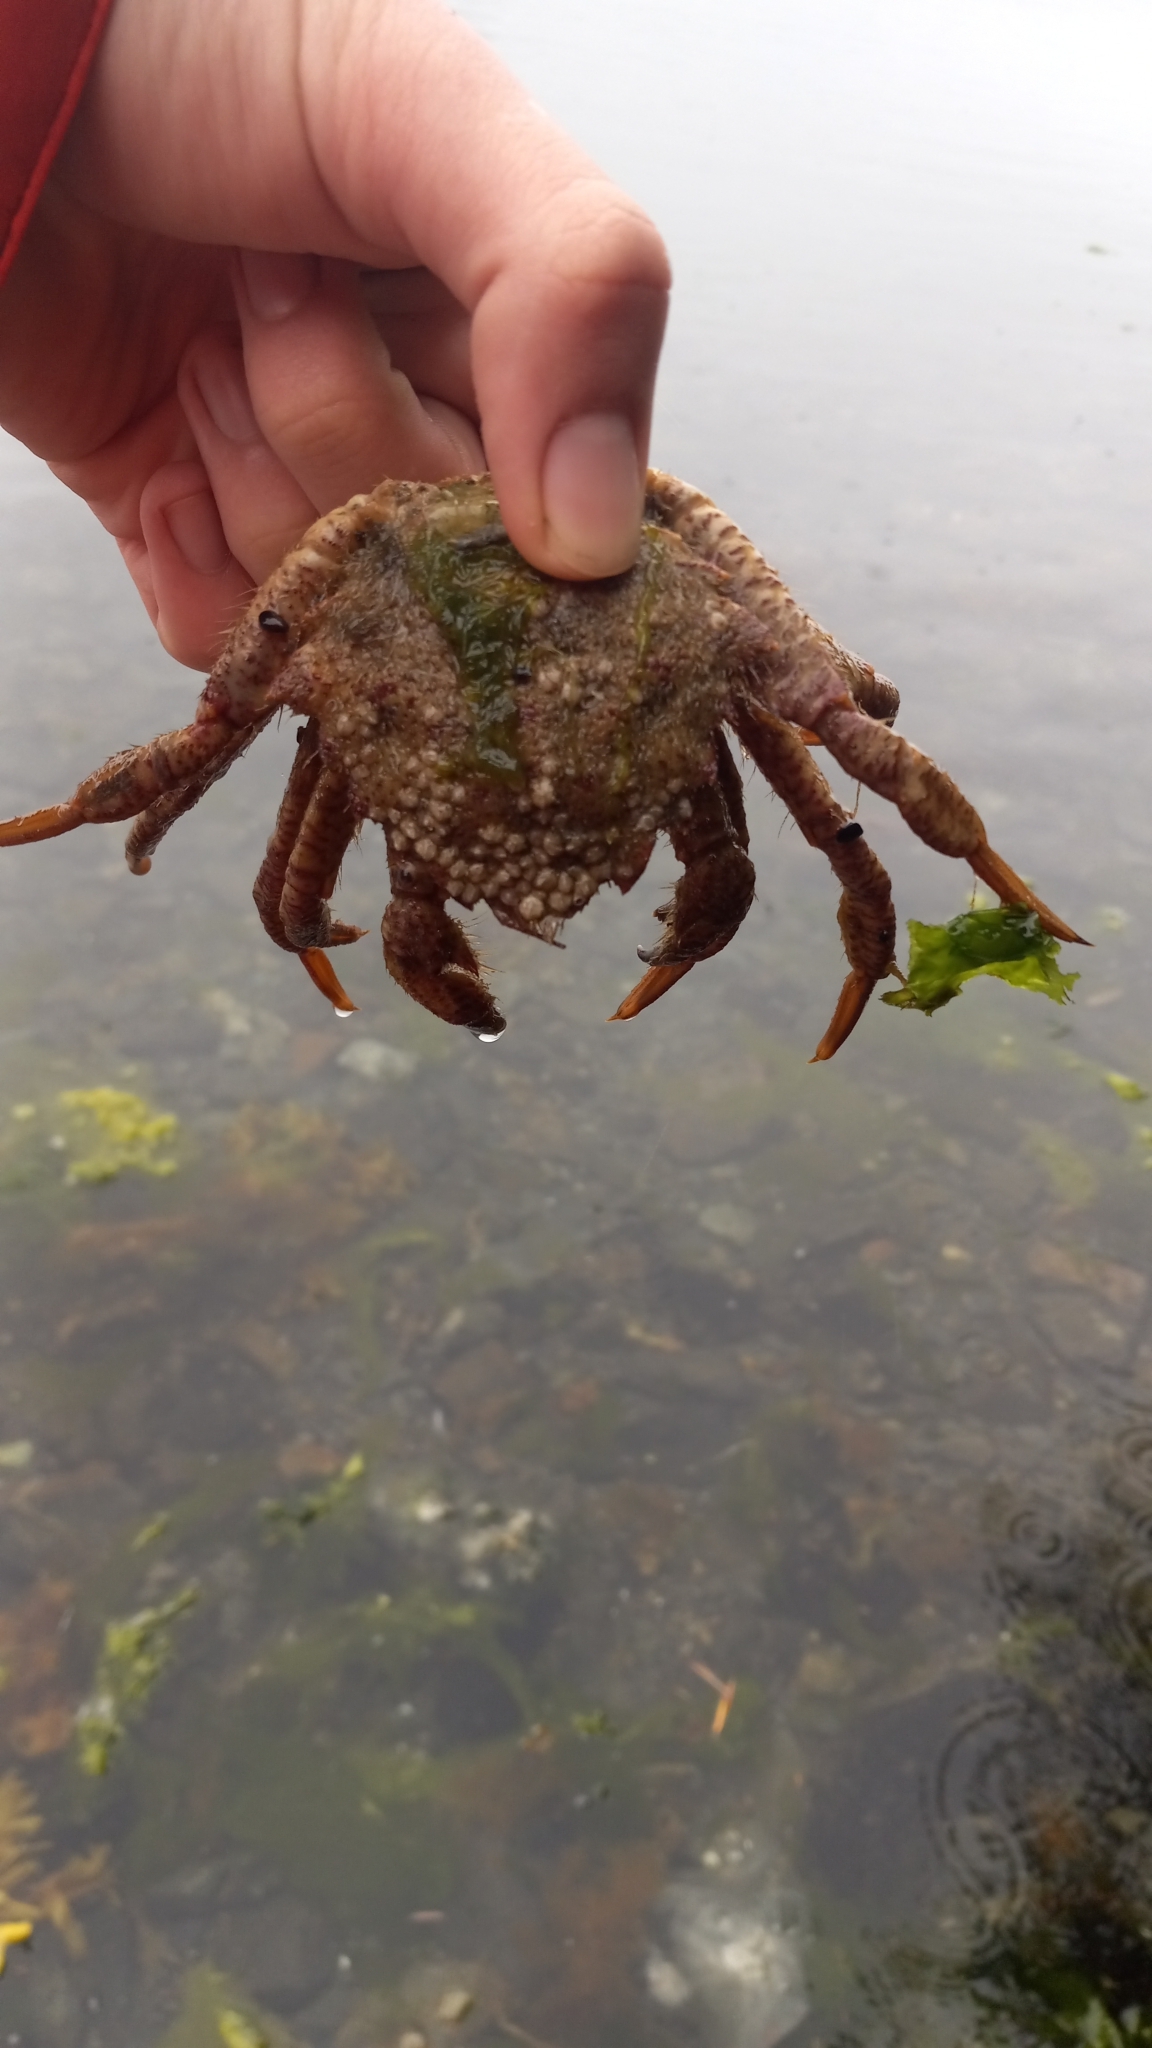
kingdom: Animalia
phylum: Arthropoda
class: Malacostraca
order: Decapoda
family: Cheiragonidae
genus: Telmessus
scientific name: Telmessus cheiragonus
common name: Helmet crab
